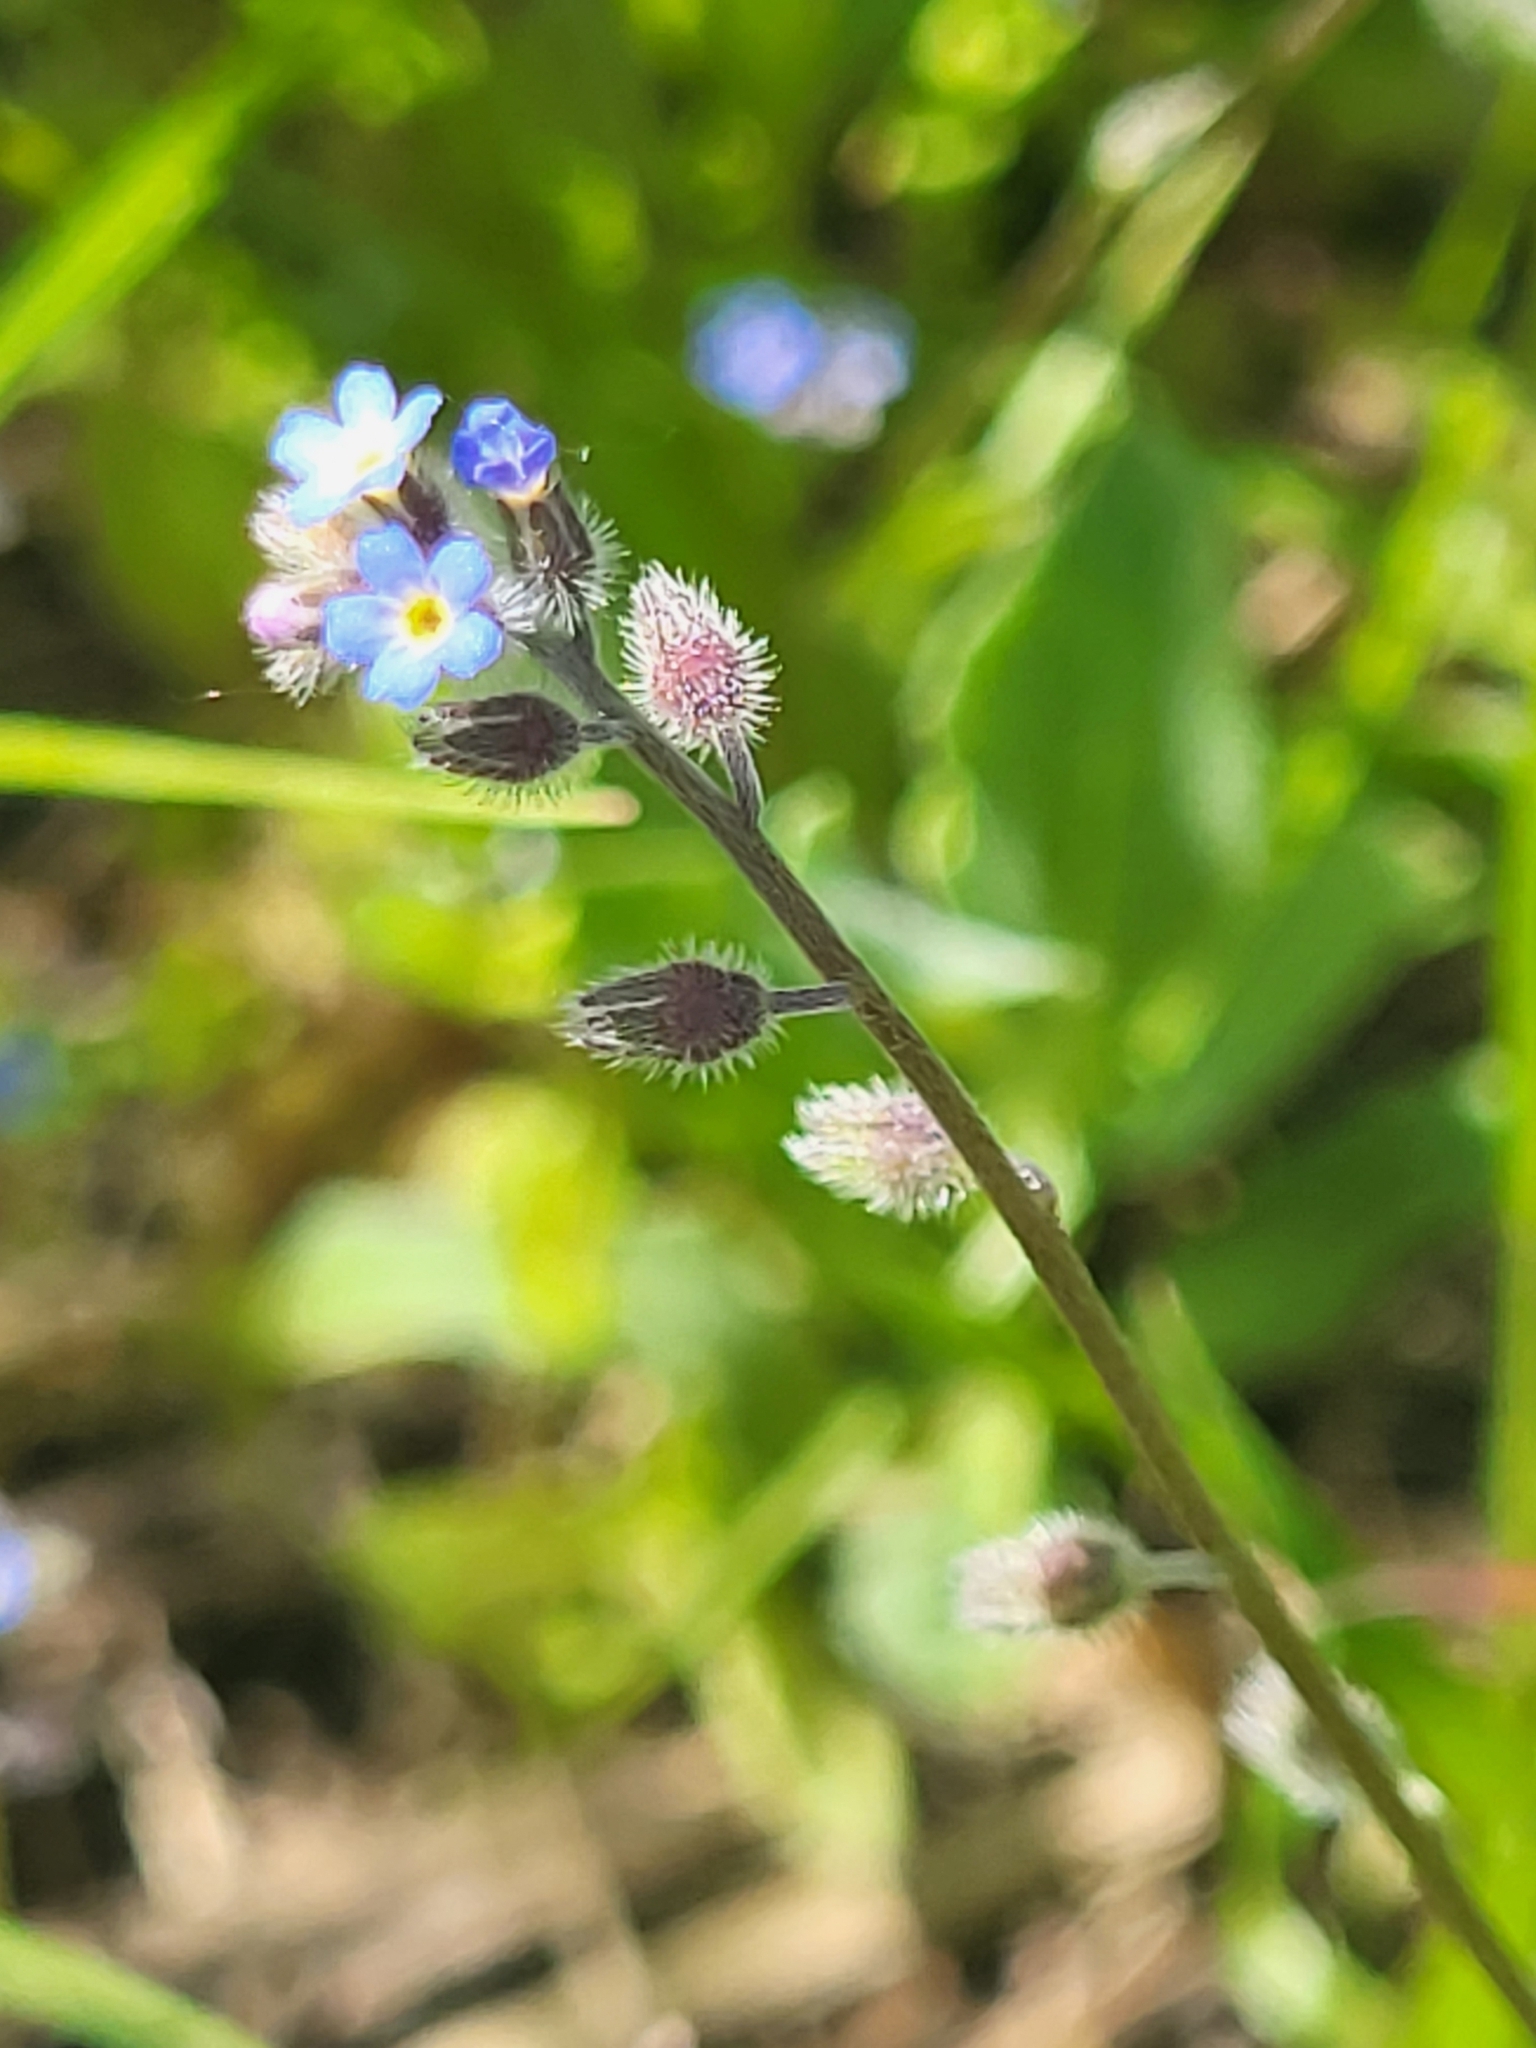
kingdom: Plantae
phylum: Tracheophyta
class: Magnoliopsida
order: Boraginales
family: Boraginaceae
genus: Myosotis
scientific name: Myosotis ramosissima
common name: Early forget-me-not
